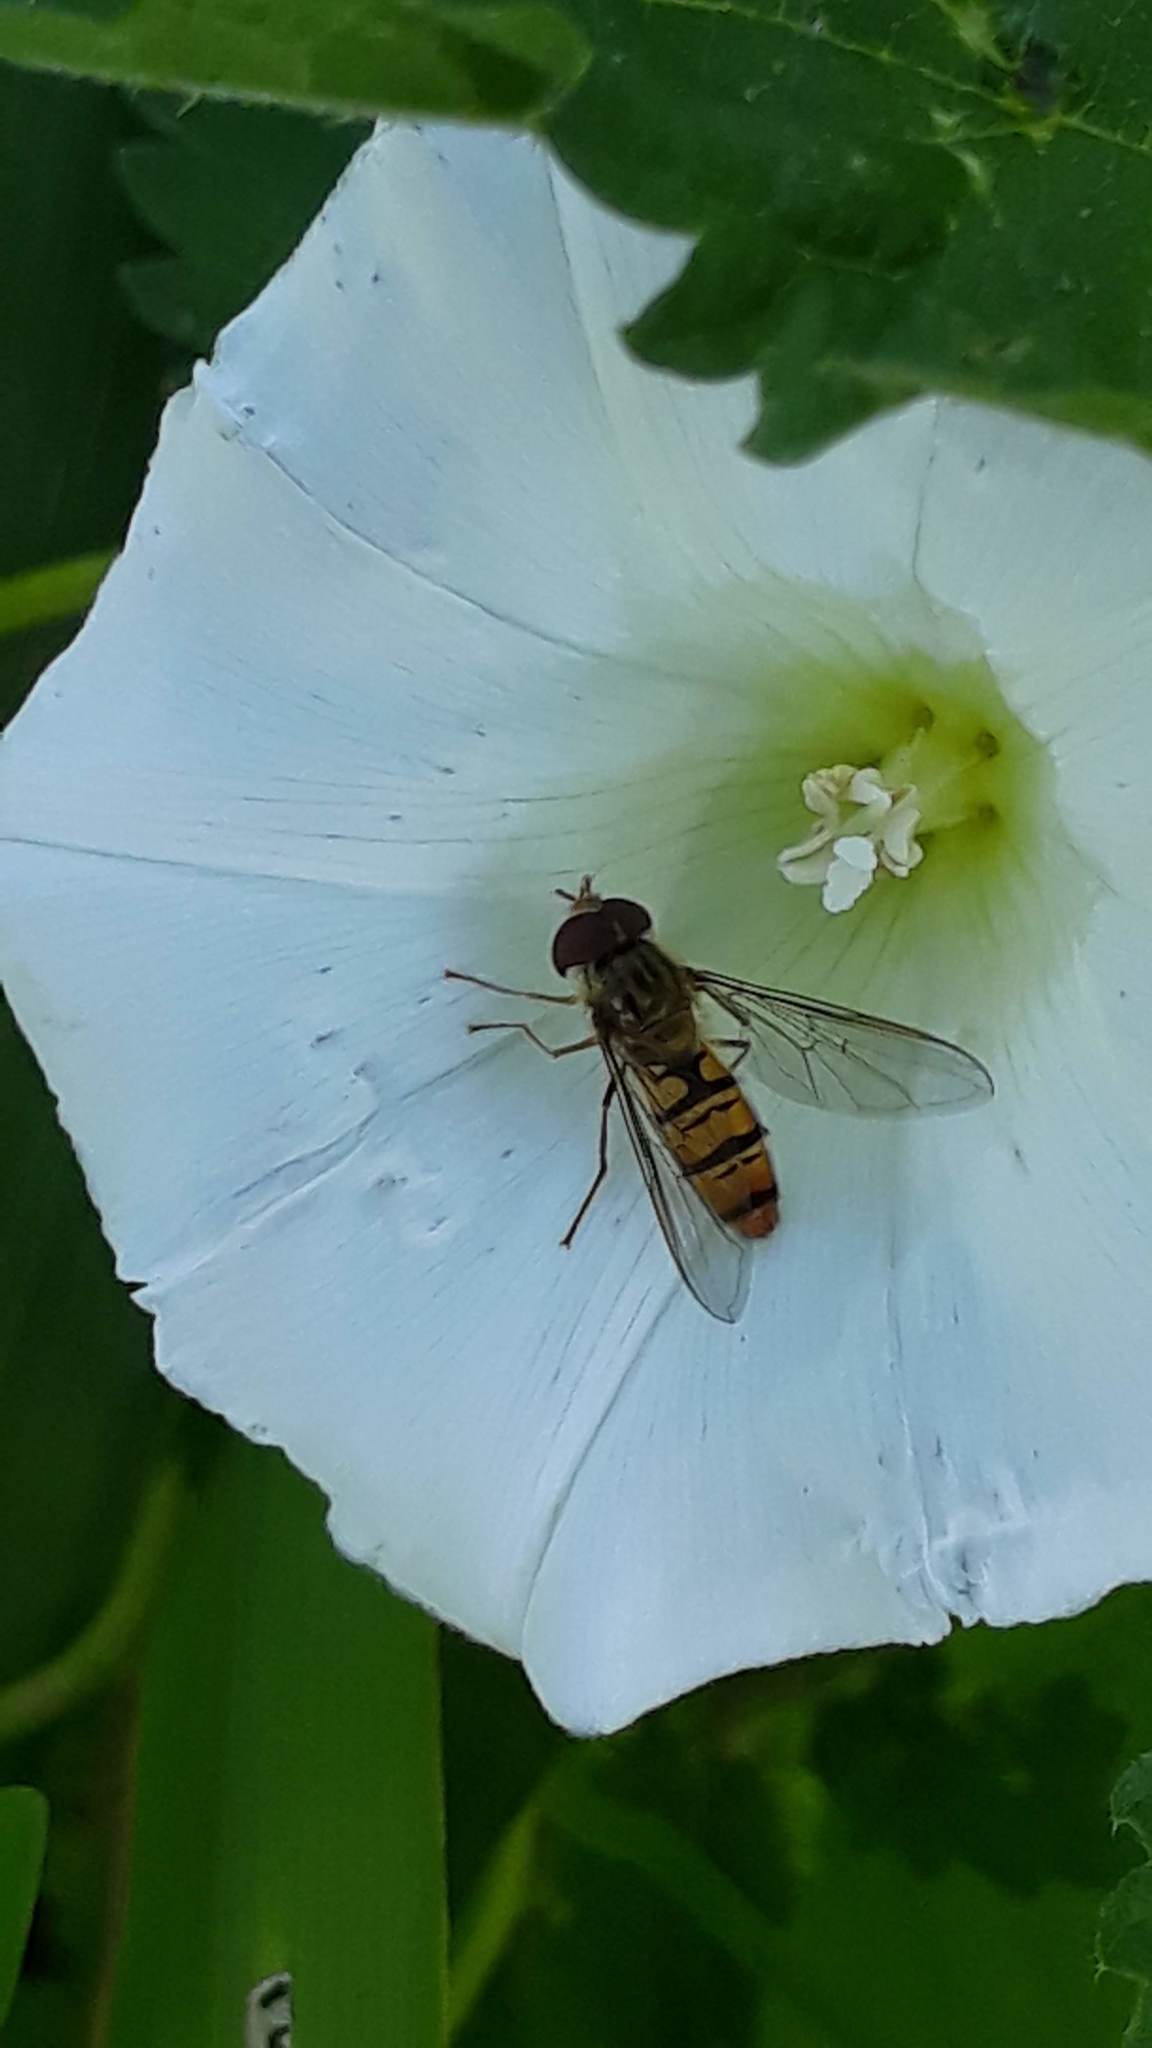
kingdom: Animalia
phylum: Arthropoda
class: Insecta
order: Diptera
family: Syrphidae
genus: Episyrphus
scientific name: Episyrphus balteatus
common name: Marmalade hoverfly
